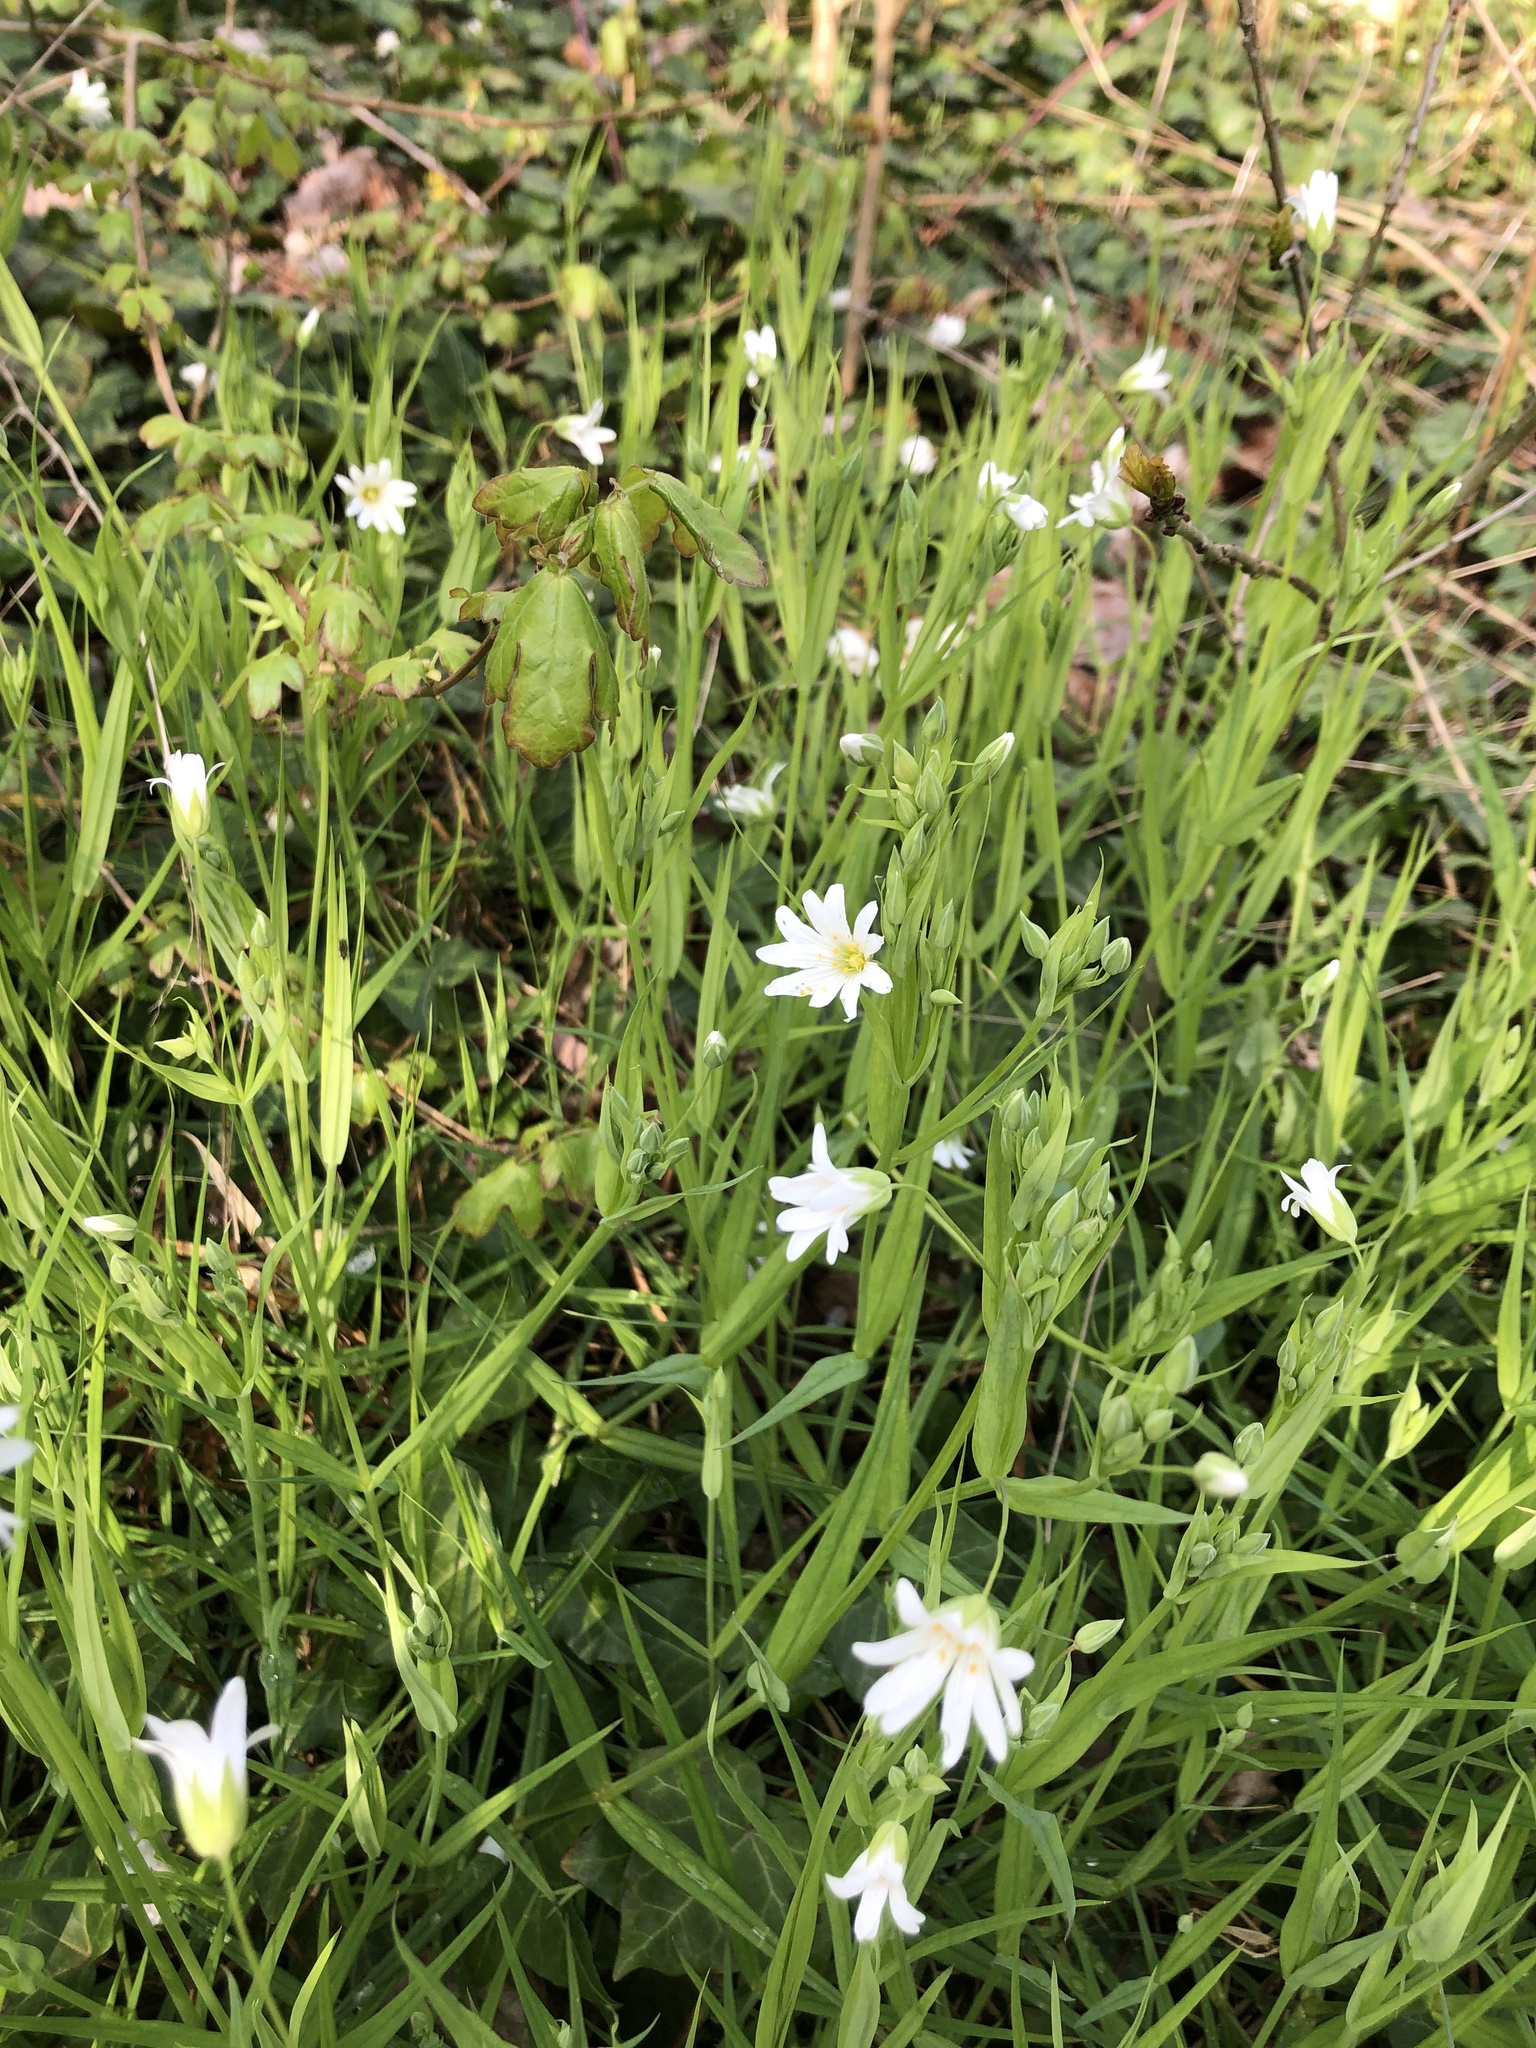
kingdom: Plantae
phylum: Tracheophyta
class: Magnoliopsida
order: Caryophyllales
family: Caryophyllaceae
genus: Rabelera
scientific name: Rabelera holostea
